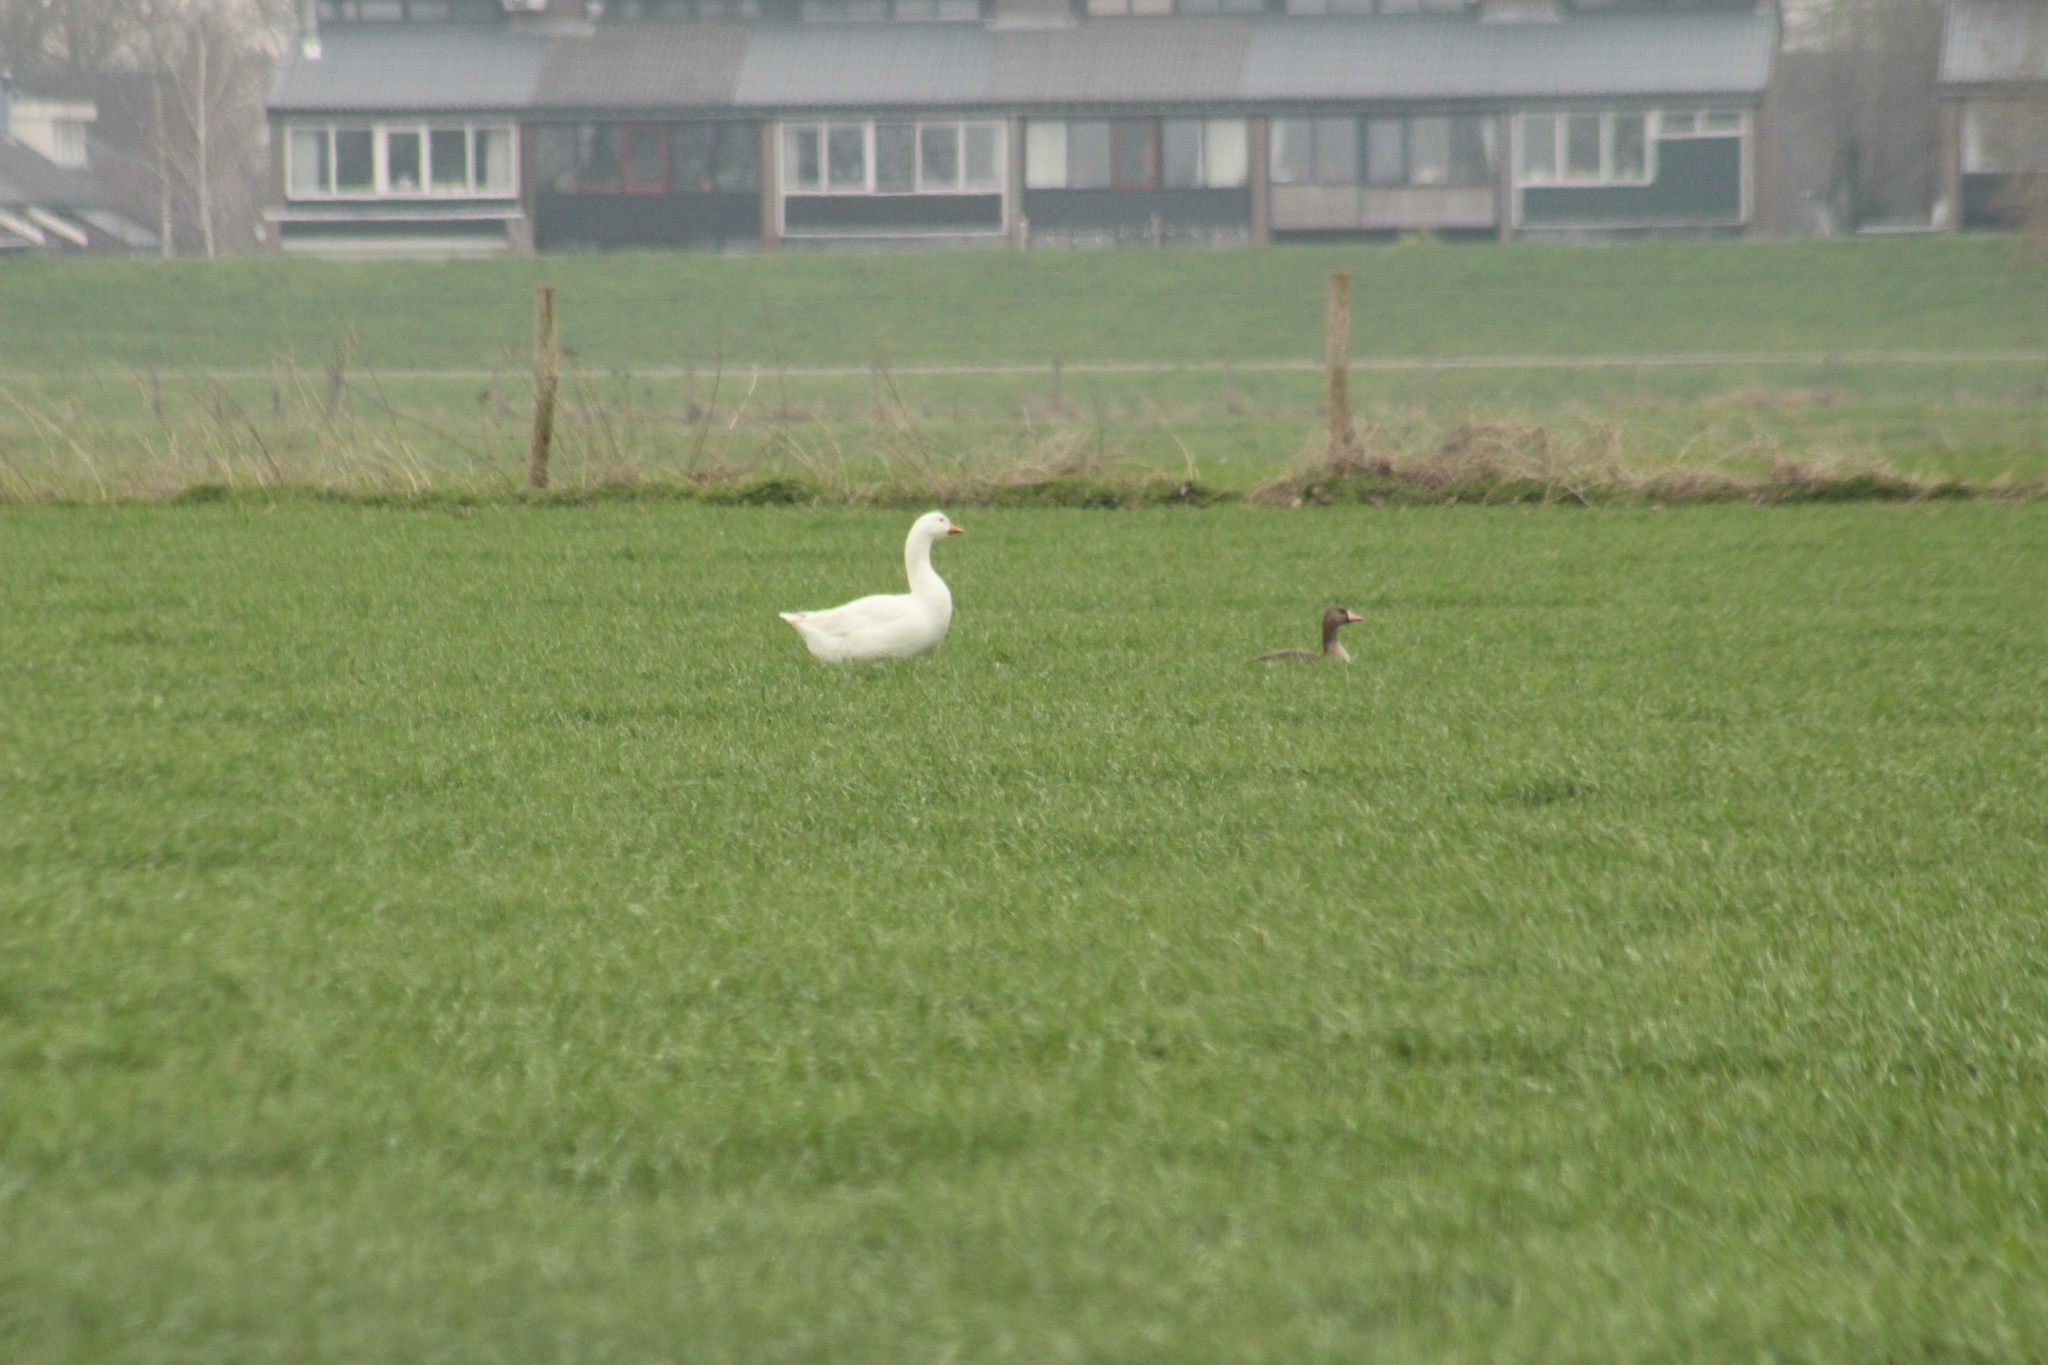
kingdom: Animalia
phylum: Chordata
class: Aves
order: Anseriformes
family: Anatidae
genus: Anser
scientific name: Anser anser
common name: Greylag goose
